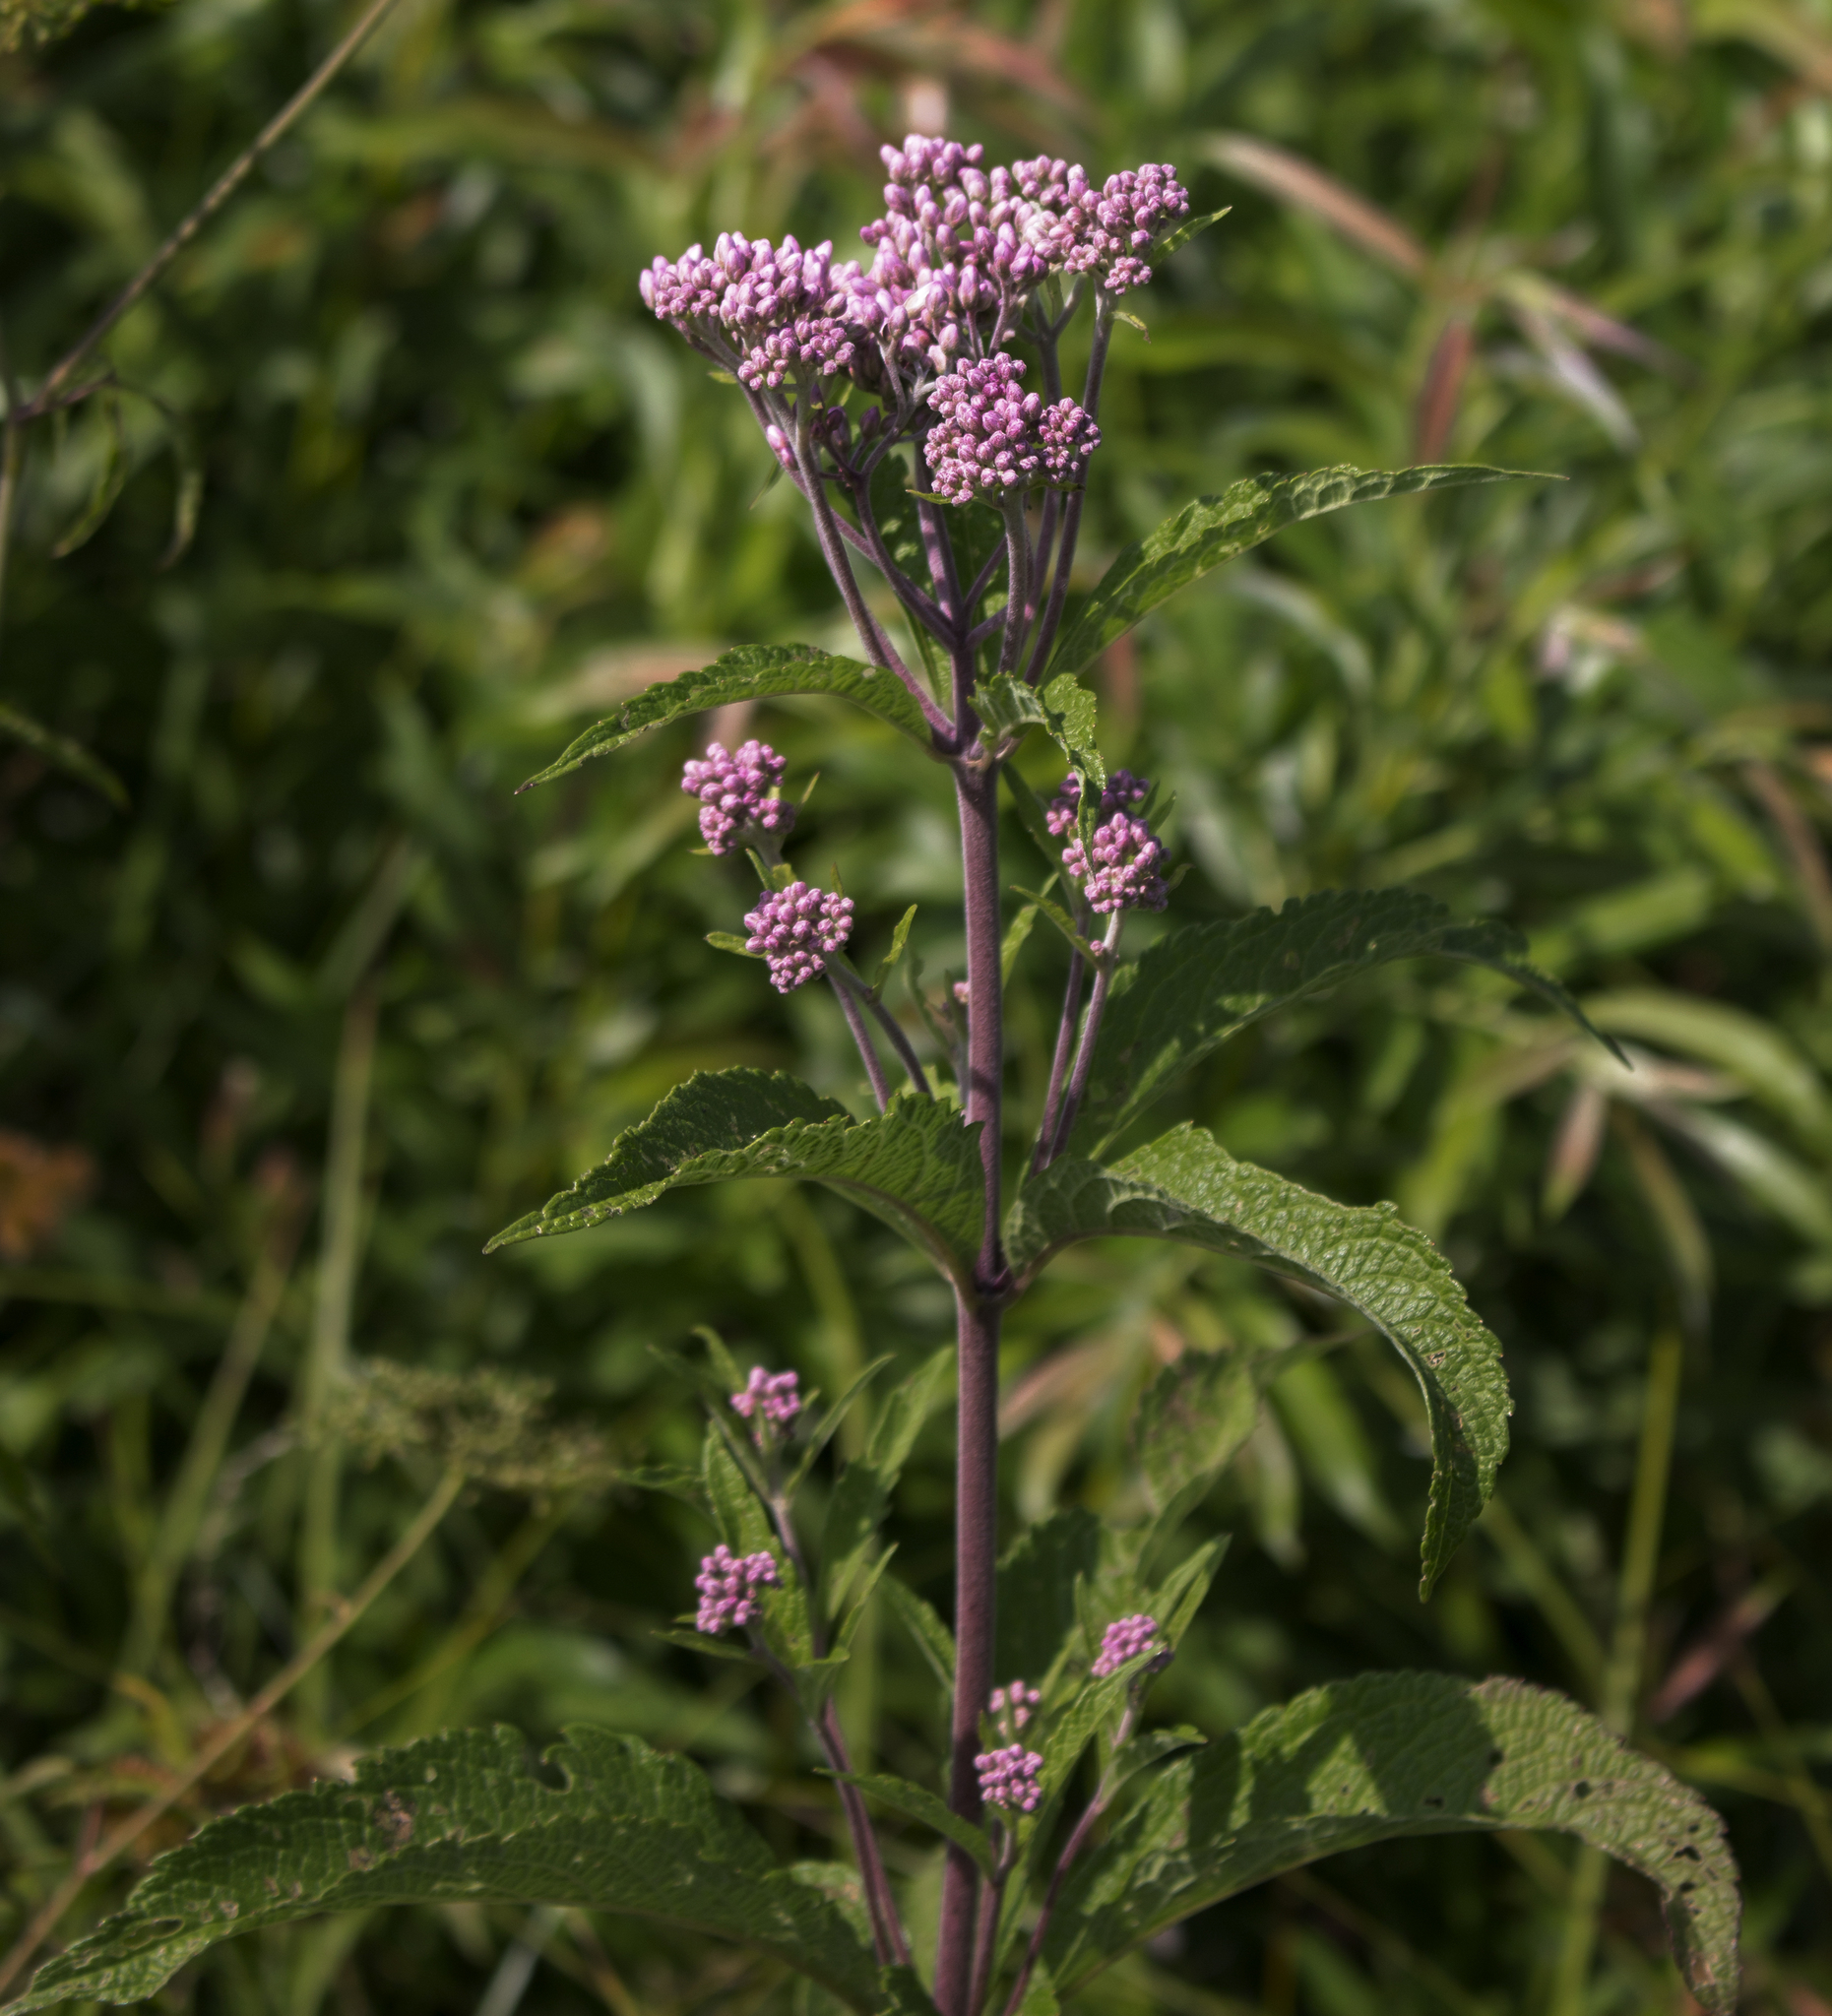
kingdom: Plantae
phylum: Tracheophyta
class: Magnoliopsida
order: Asterales
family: Asteraceae
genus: Eutrochium
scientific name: Eutrochium maculatum
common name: Spotted joe pye weed
